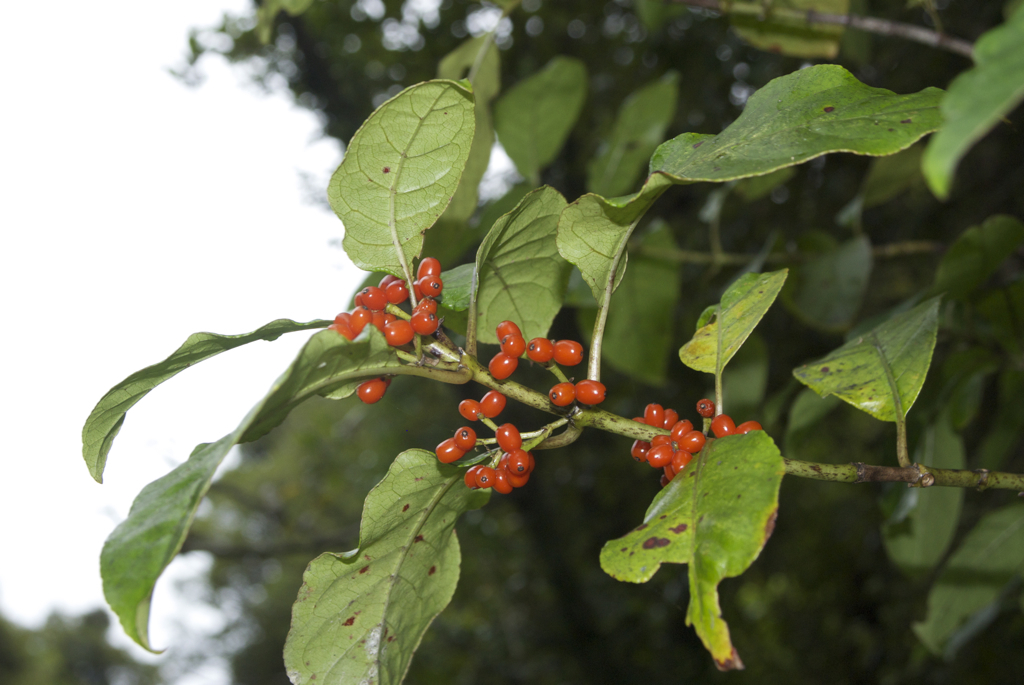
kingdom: Plantae
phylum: Tracheophyta
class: Magnoliopsida
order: Gentianales
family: Rubiaceae
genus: Coprosma
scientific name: Coprosma autumnalis
